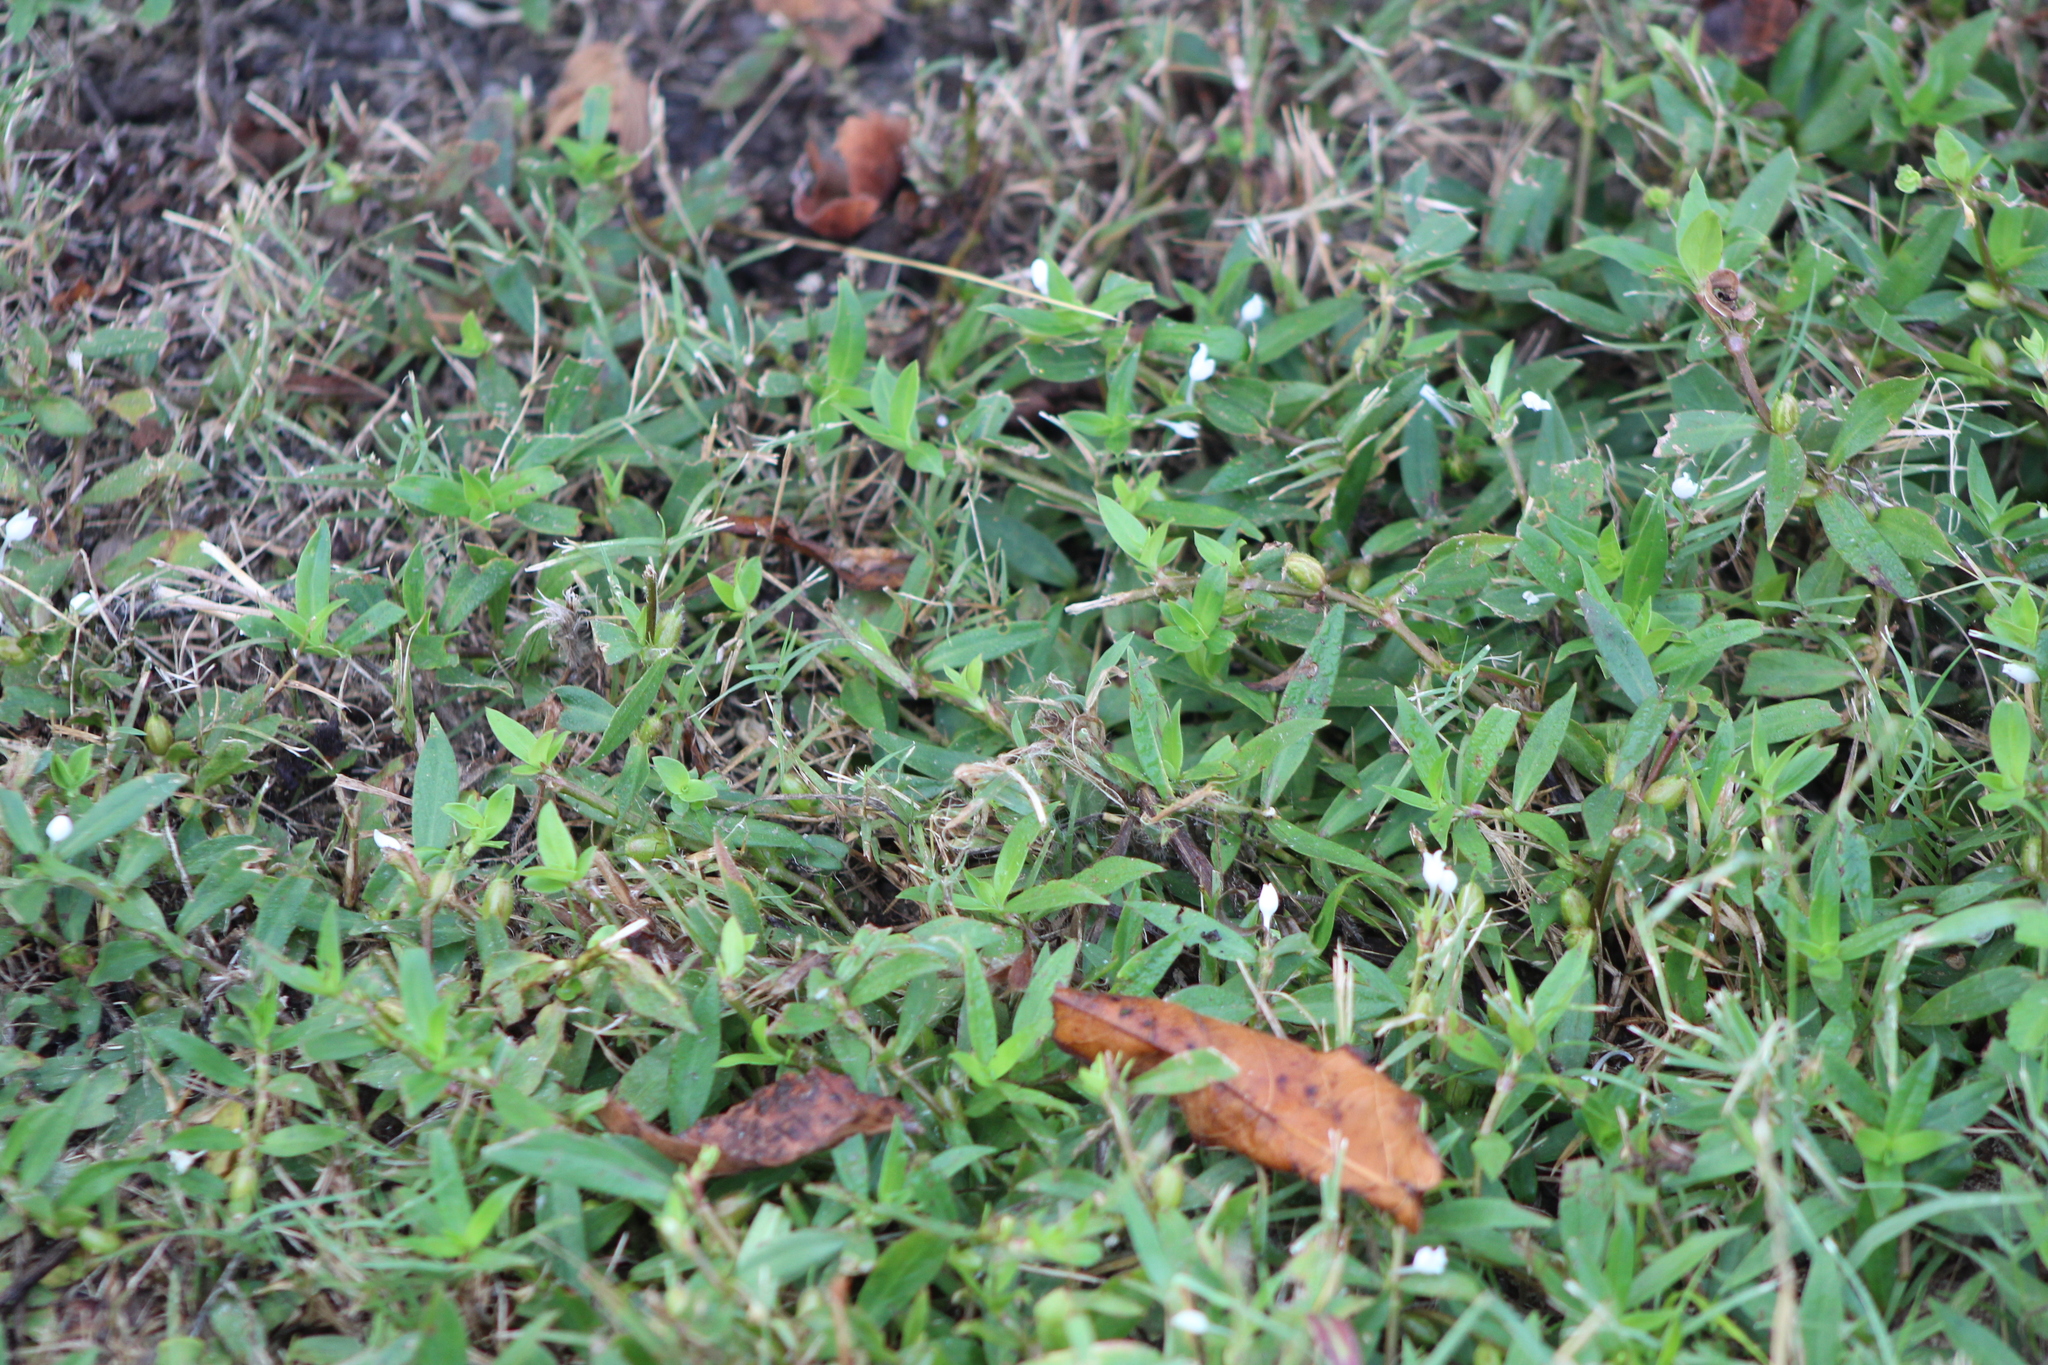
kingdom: Plantae
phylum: Tracheophyta
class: Magnoliopsida
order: Gentianales
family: Rubiaceae
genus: Diodia
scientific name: Diodia virginiana
